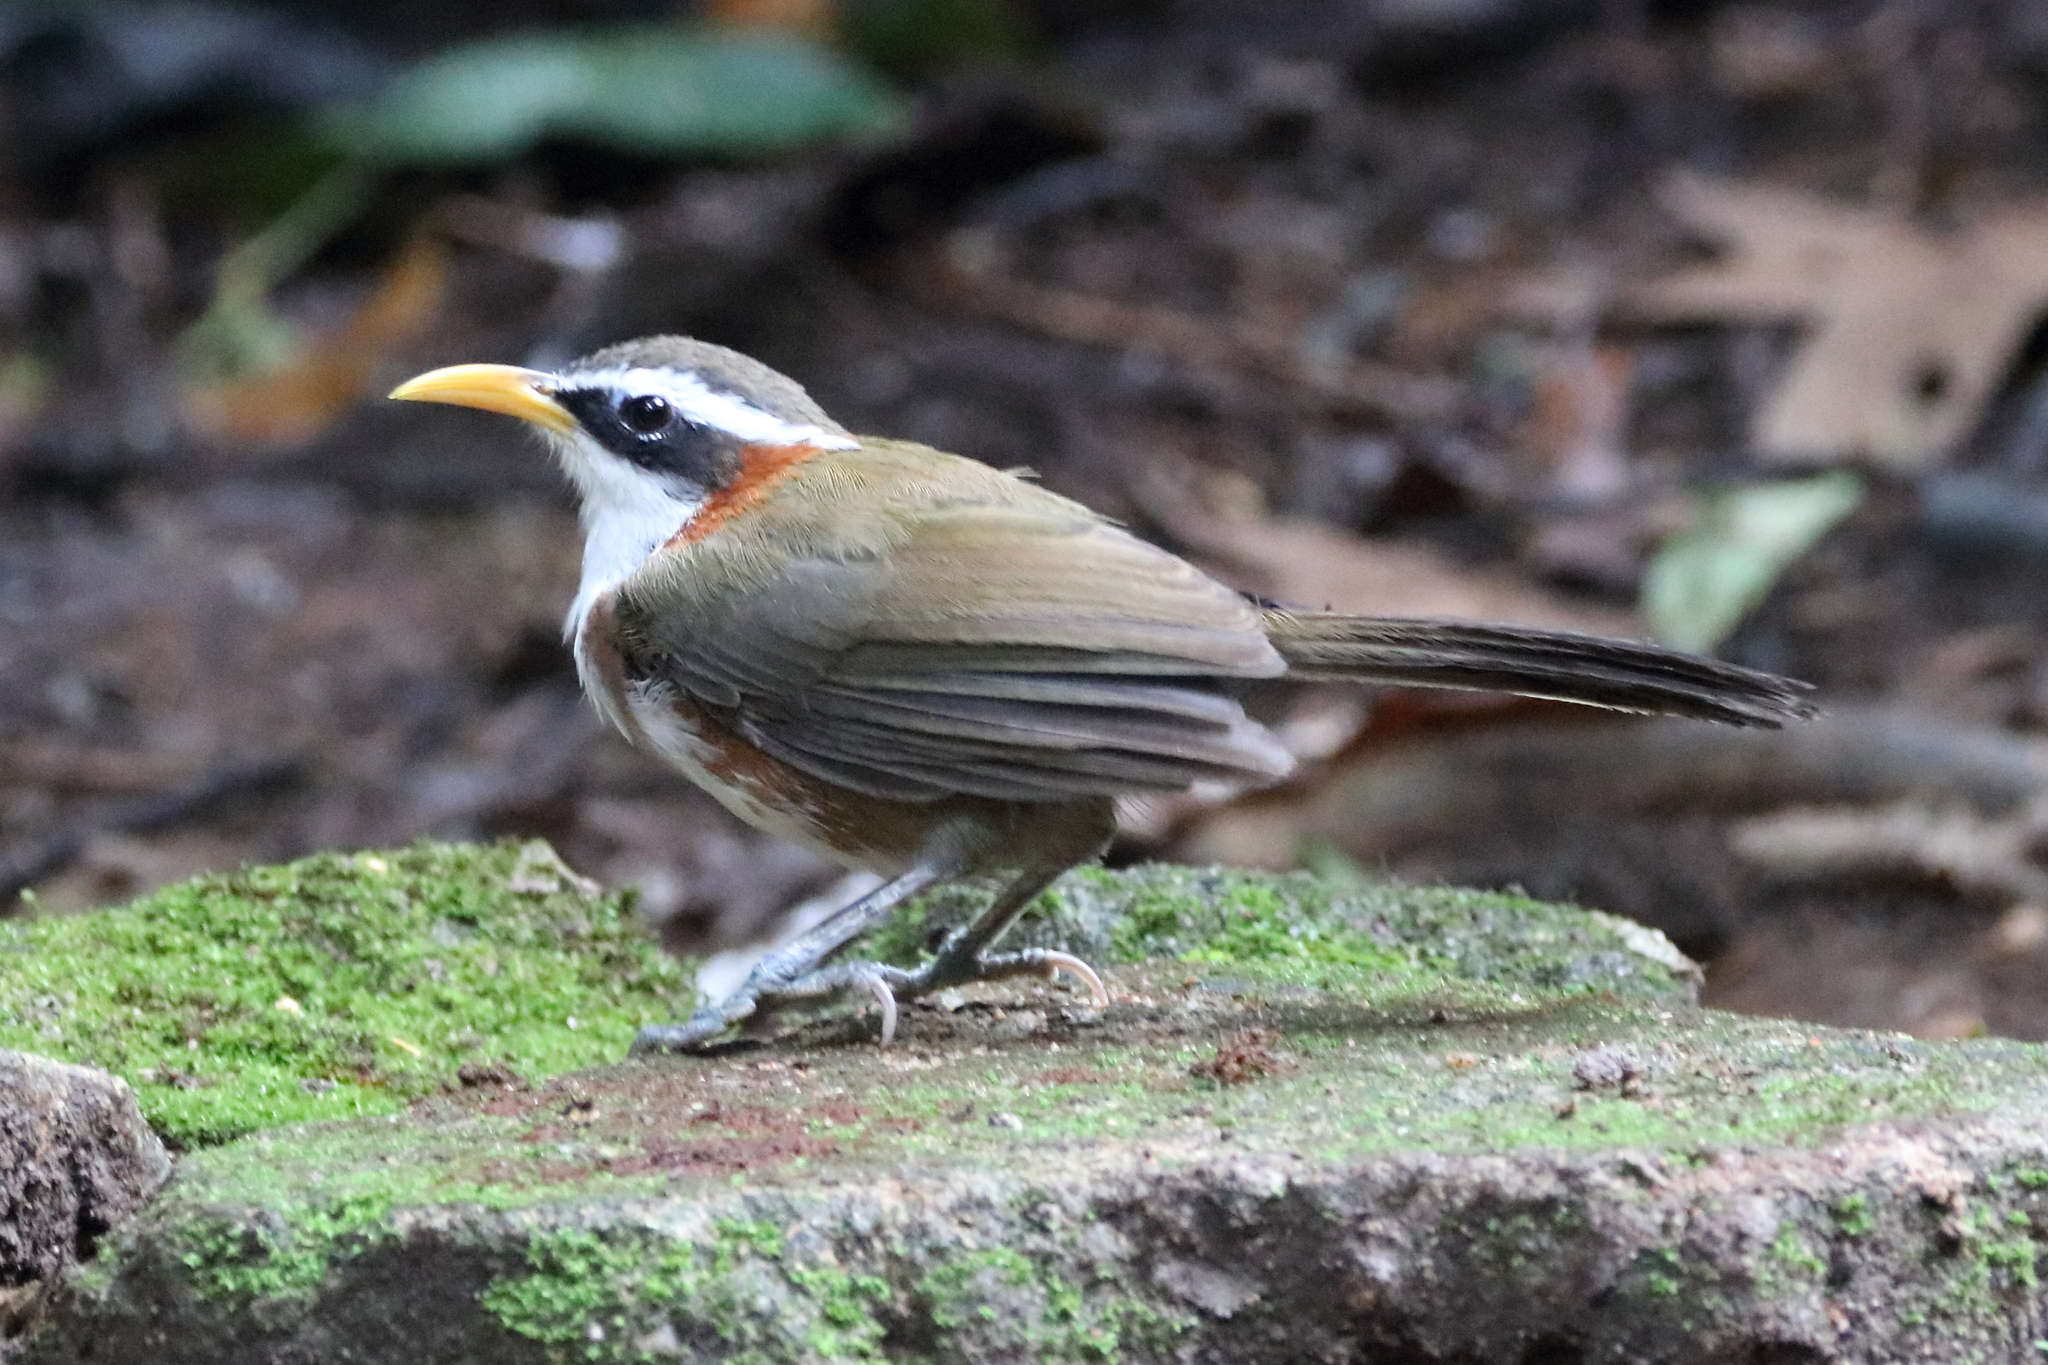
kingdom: Animalia
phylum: Chordata
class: Aves
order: Passeriformes
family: Timaliidae
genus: Pomatorhinus
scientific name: Pomatorhinus schisticeps
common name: White-browed scimitar babbler
